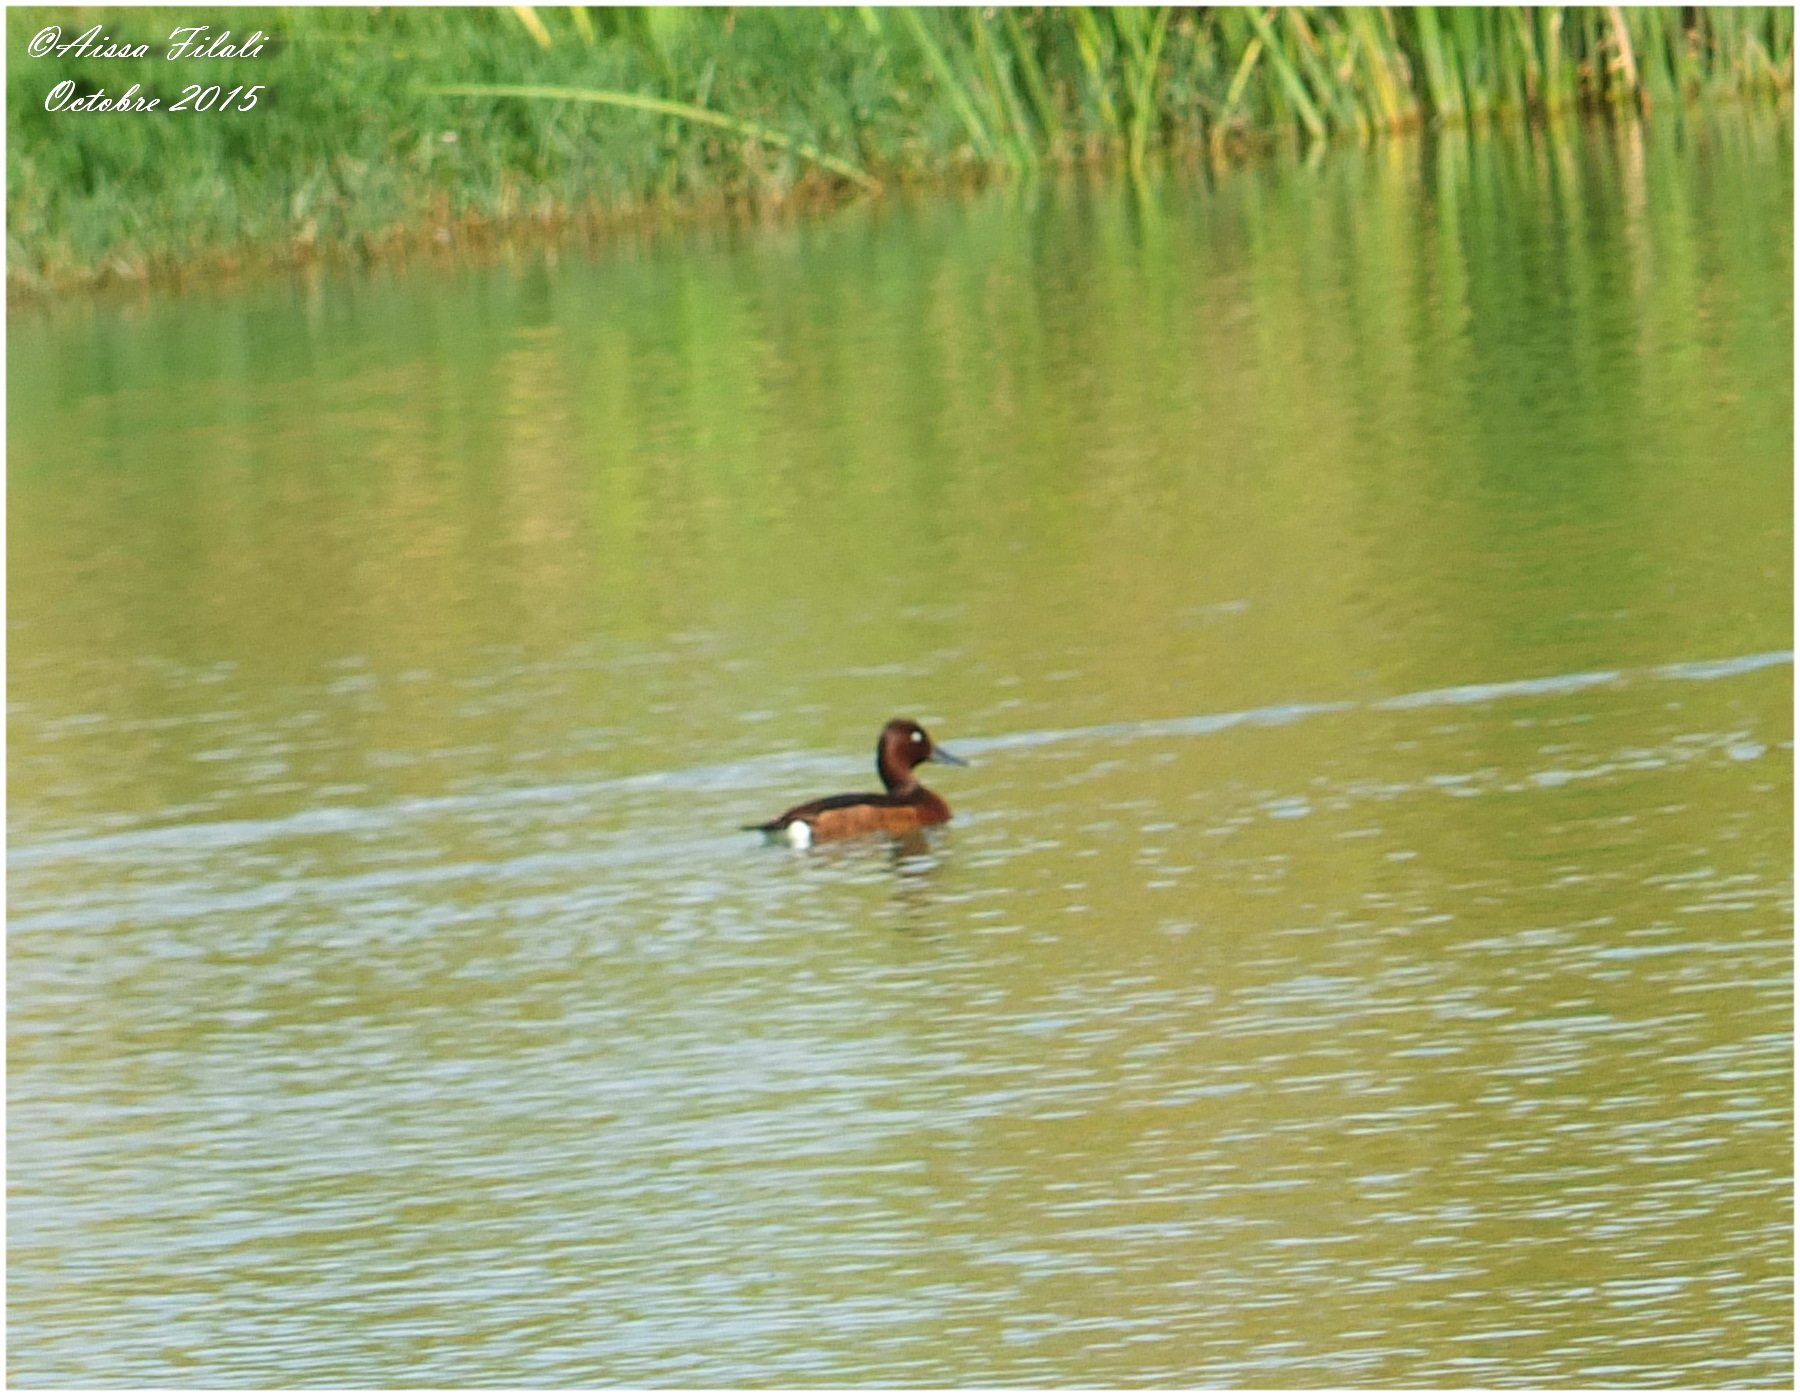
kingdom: Animalia
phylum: Chordata
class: Aves
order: Anseriformes
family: Anatidae
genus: Aythya
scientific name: Aythya nyroca
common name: Ferruginous duck
